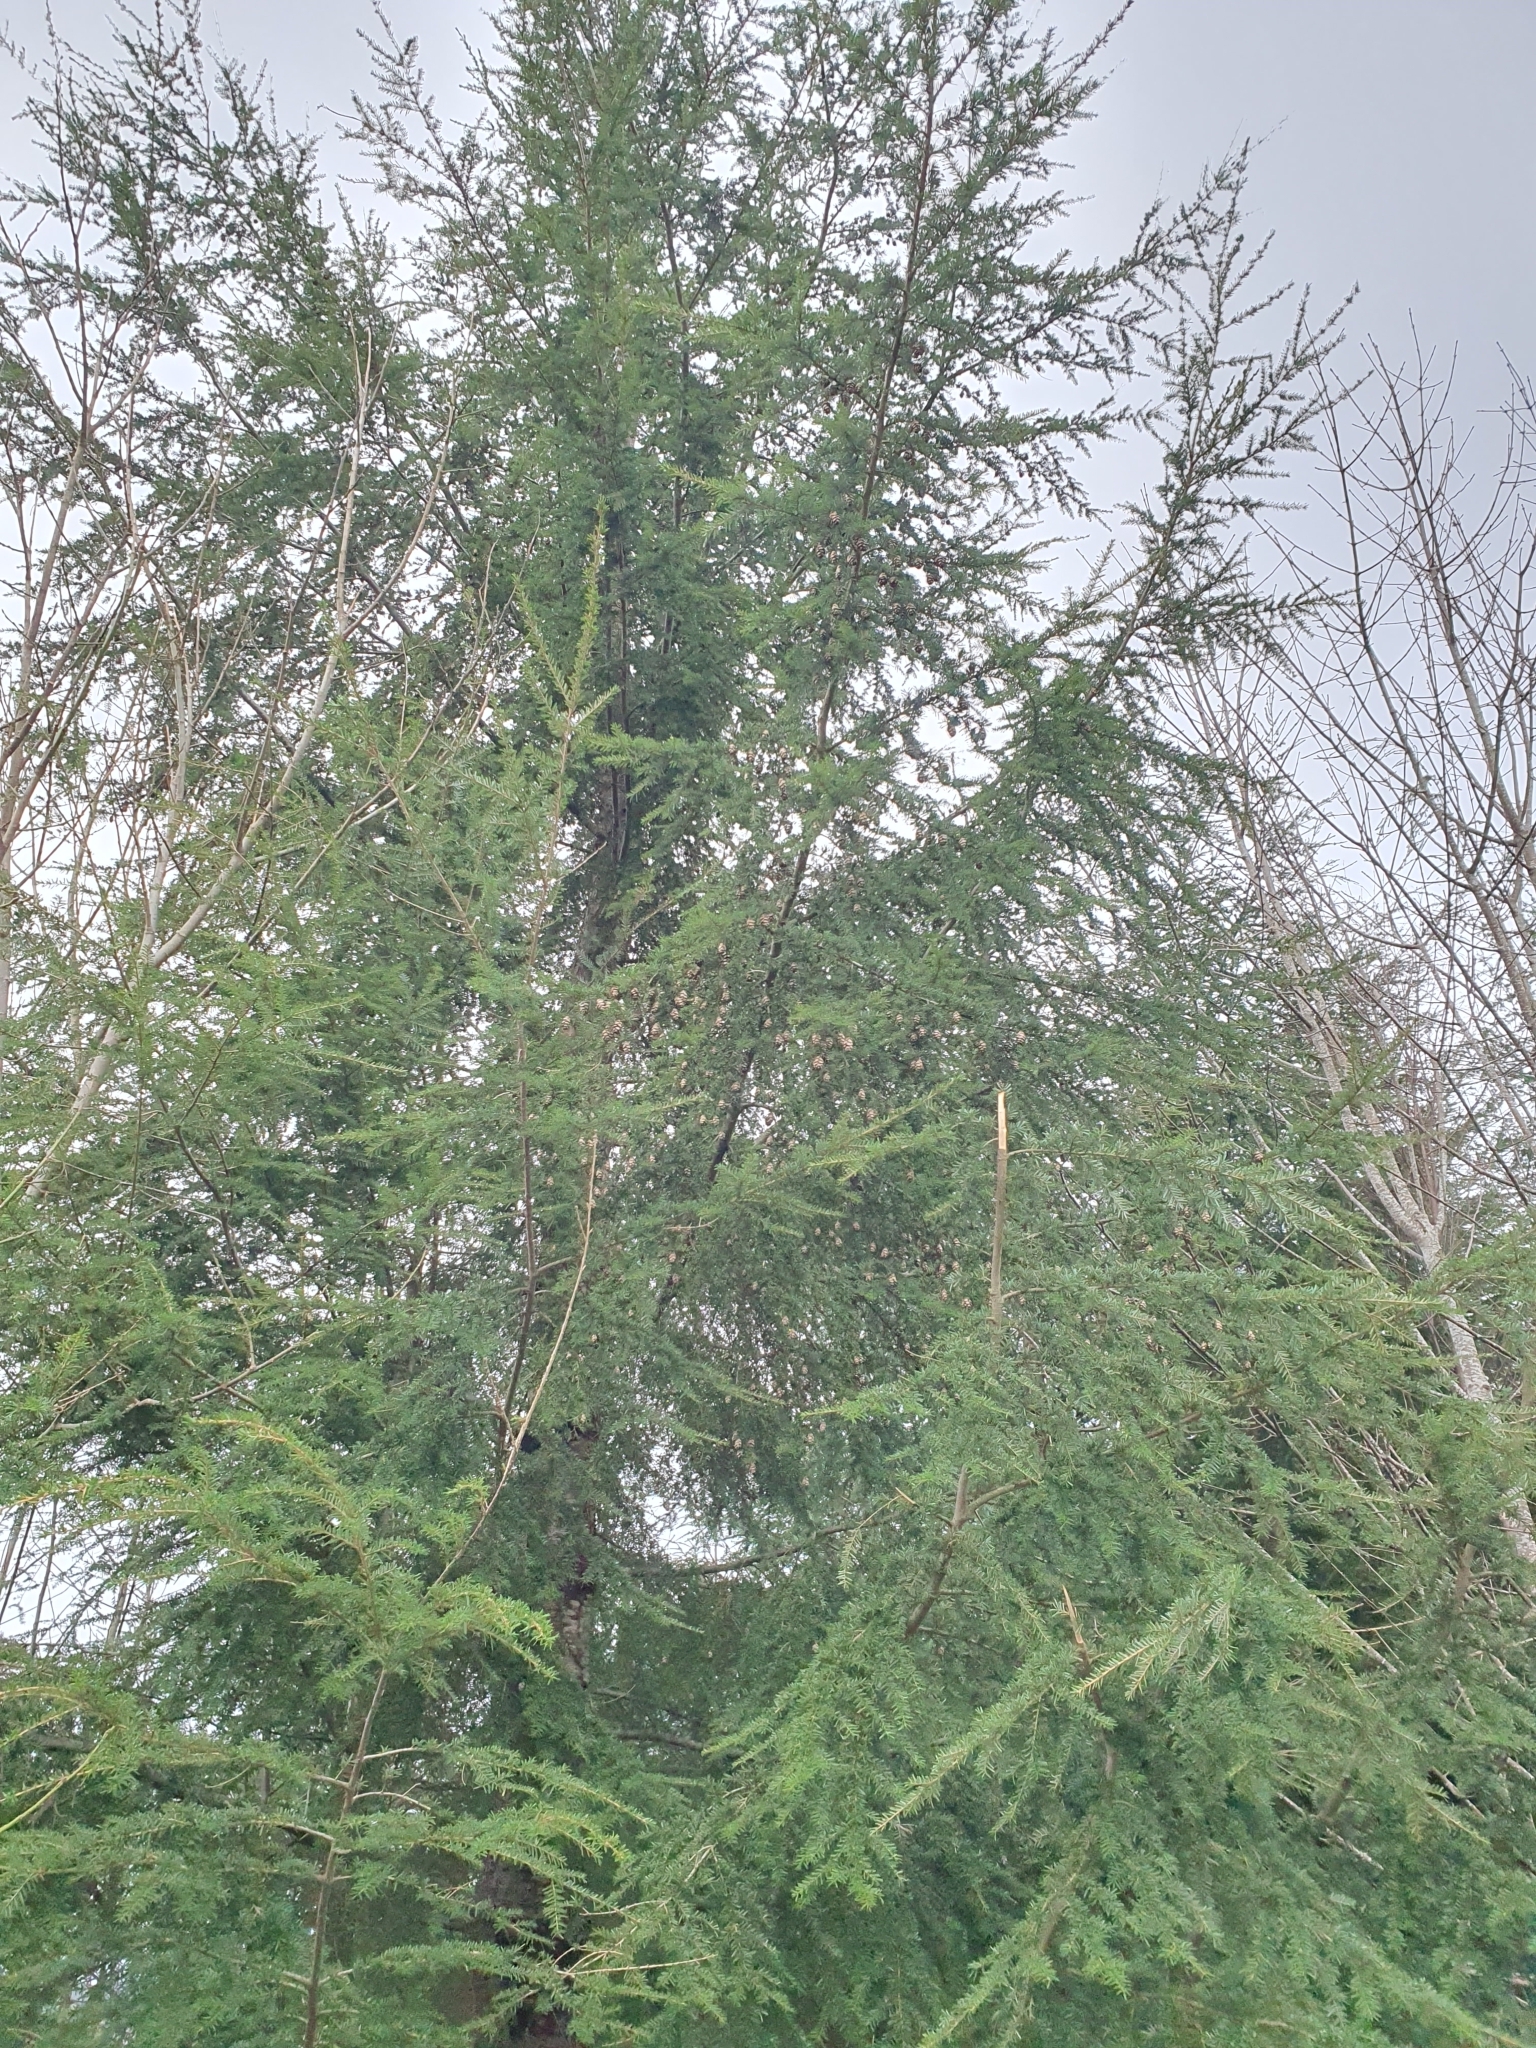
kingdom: Plantae
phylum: Tracheophyta
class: Pinopsida
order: Pinales
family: Pinaceae
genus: Tsuga
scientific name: Tsuga heterophylla
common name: Western hemlock
